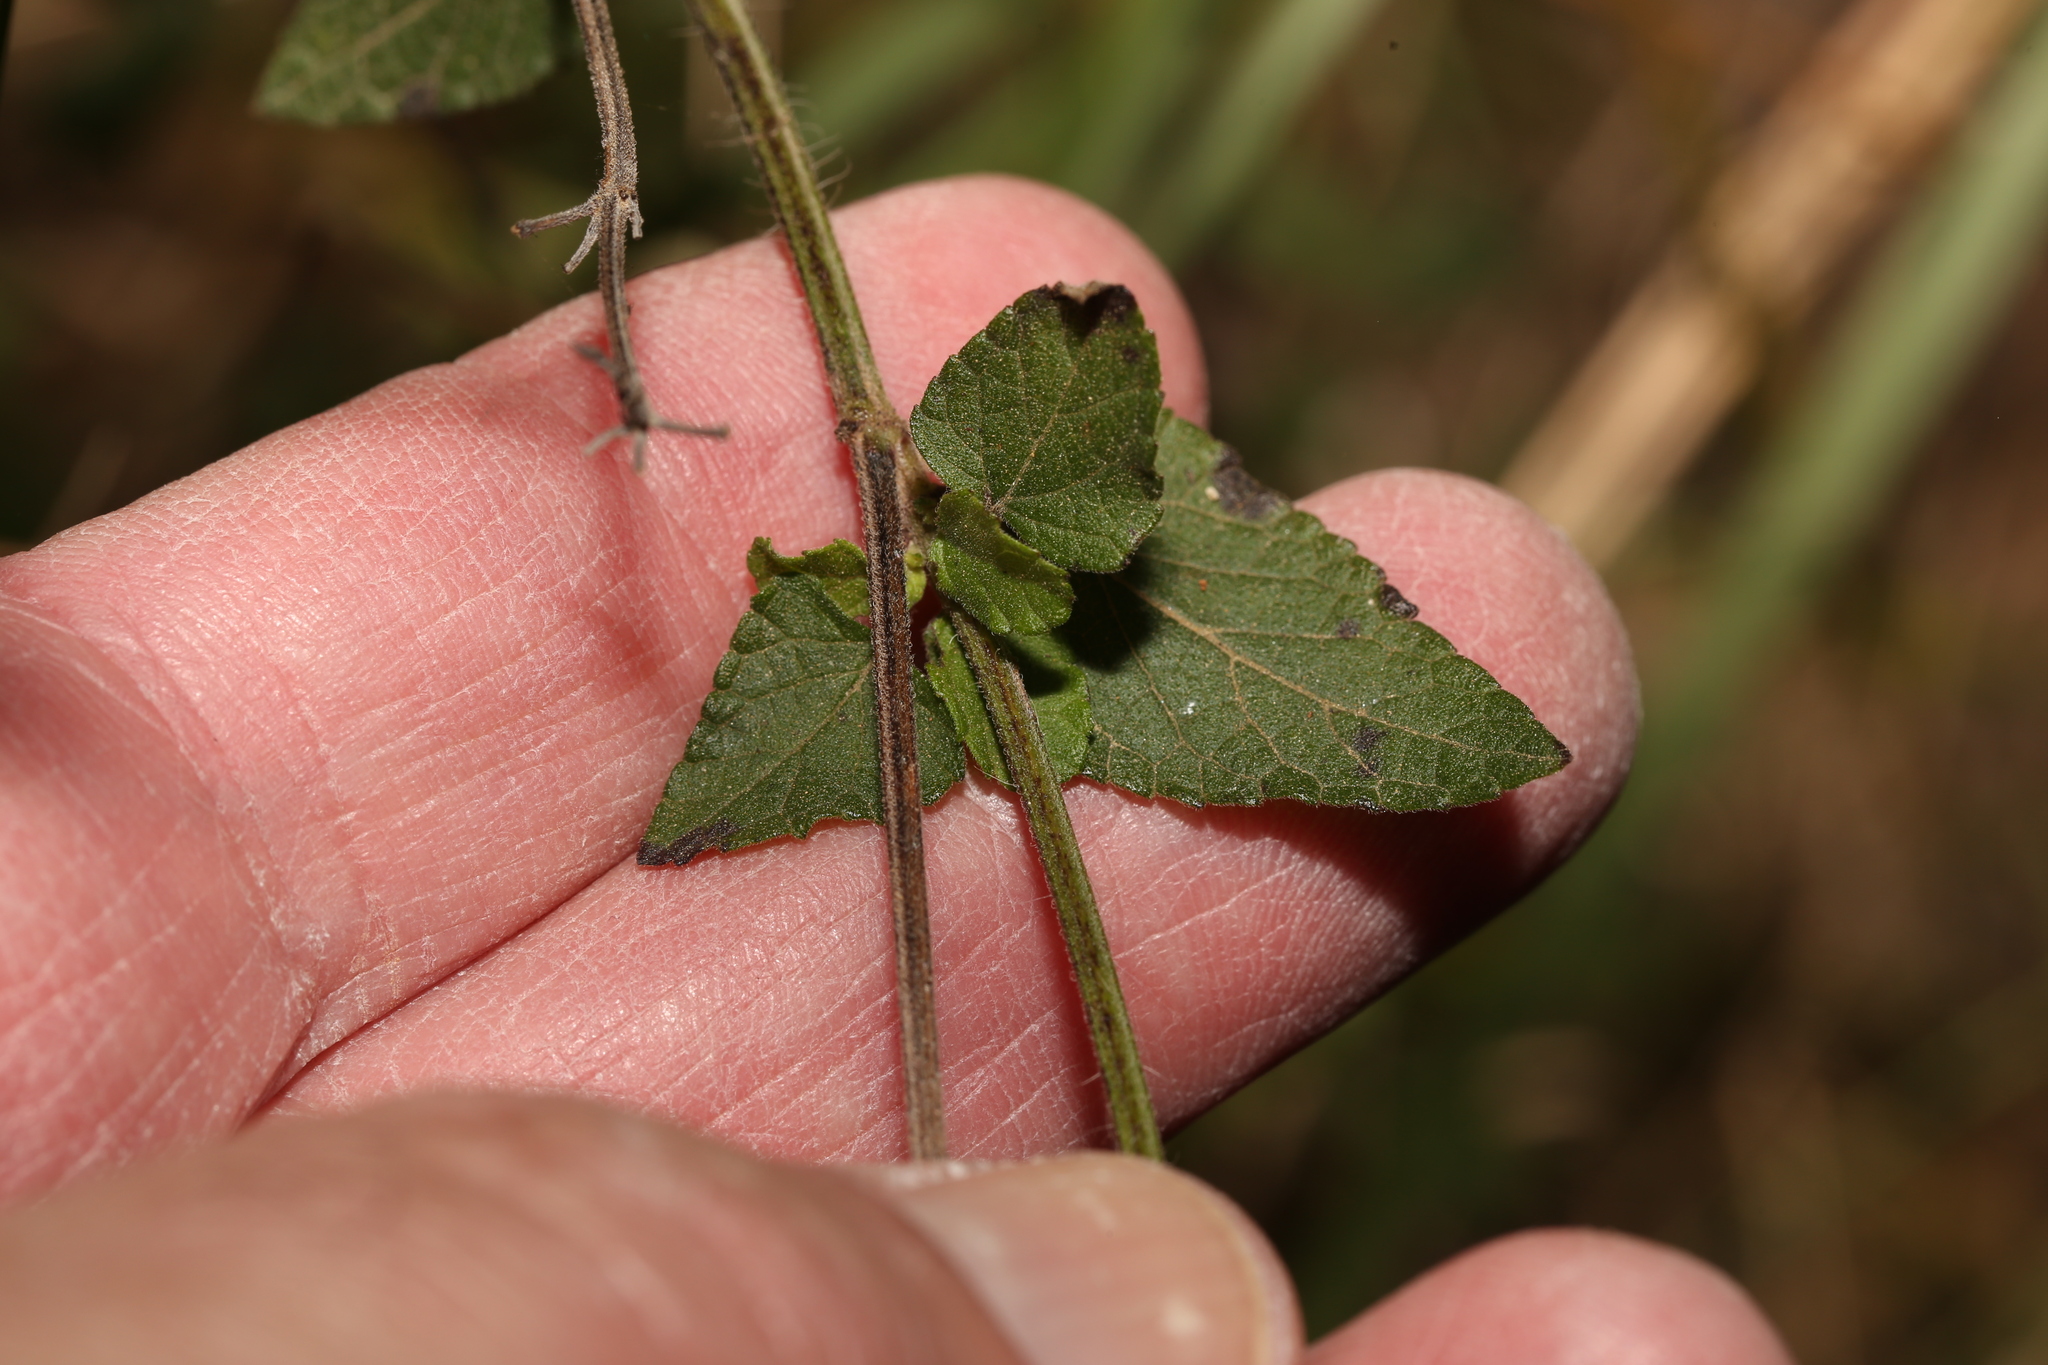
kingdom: Plantae
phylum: Tracheophyta
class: Magnoliopsida
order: Lamiales
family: Lamiaceae
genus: Salvia
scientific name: Salvia coccinea
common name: Blood sage
